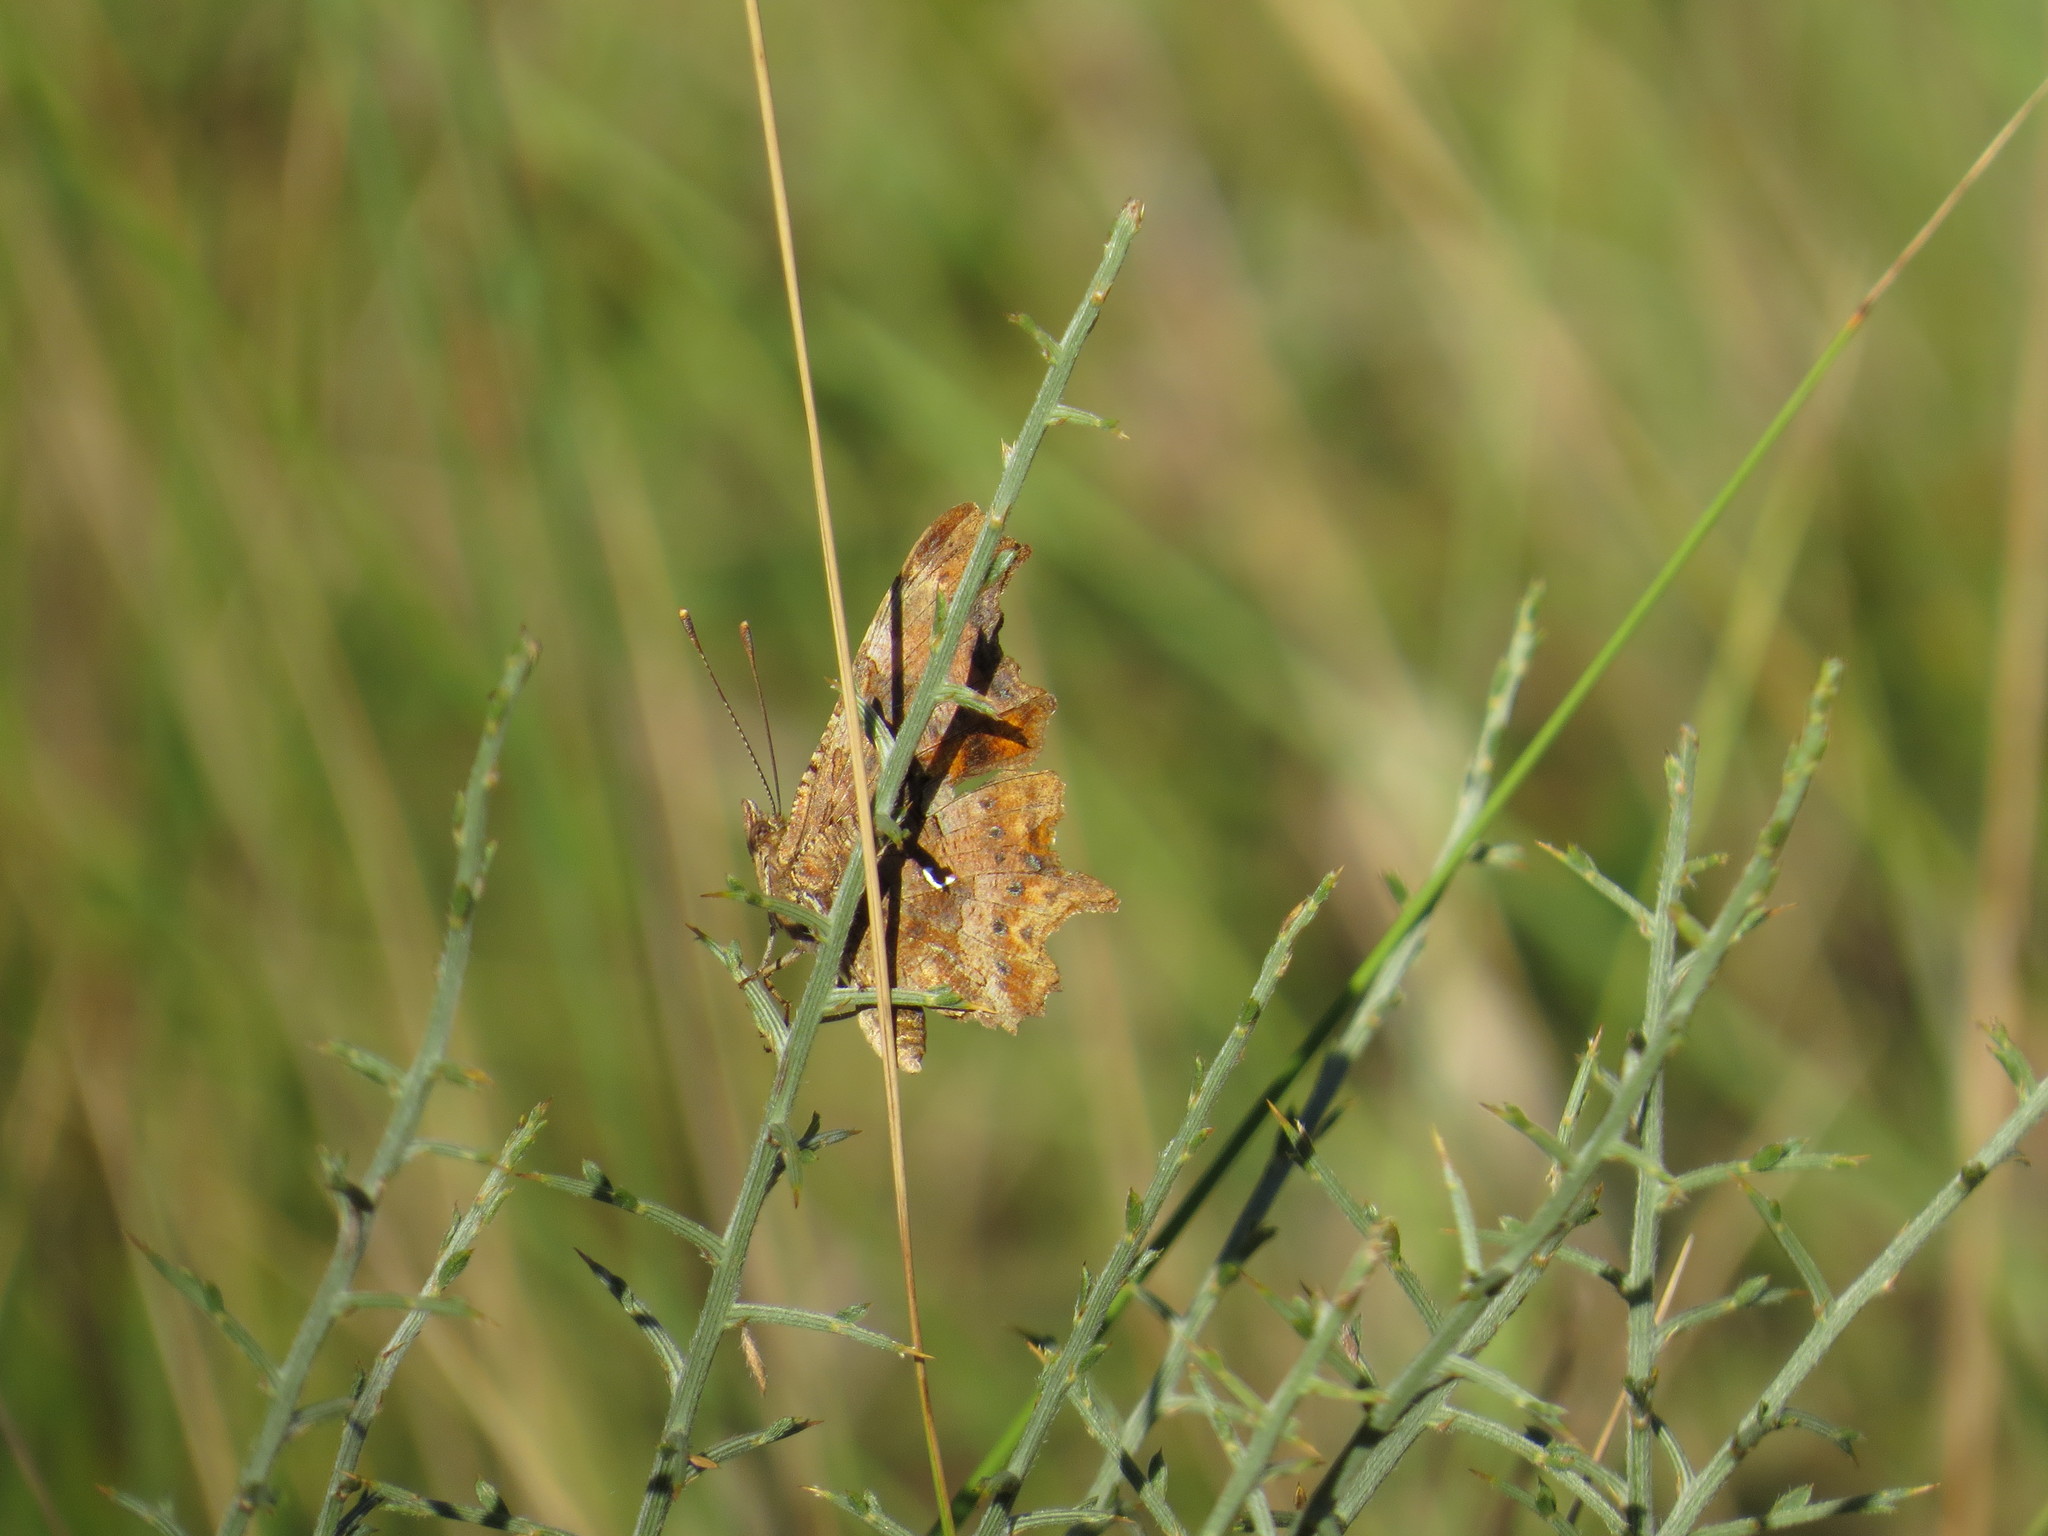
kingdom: Animalia
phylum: Arthropoda
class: Insecta
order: Lepidoptera
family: Nymphalidae
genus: Polygonia
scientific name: Polygonia c-album
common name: Comma
